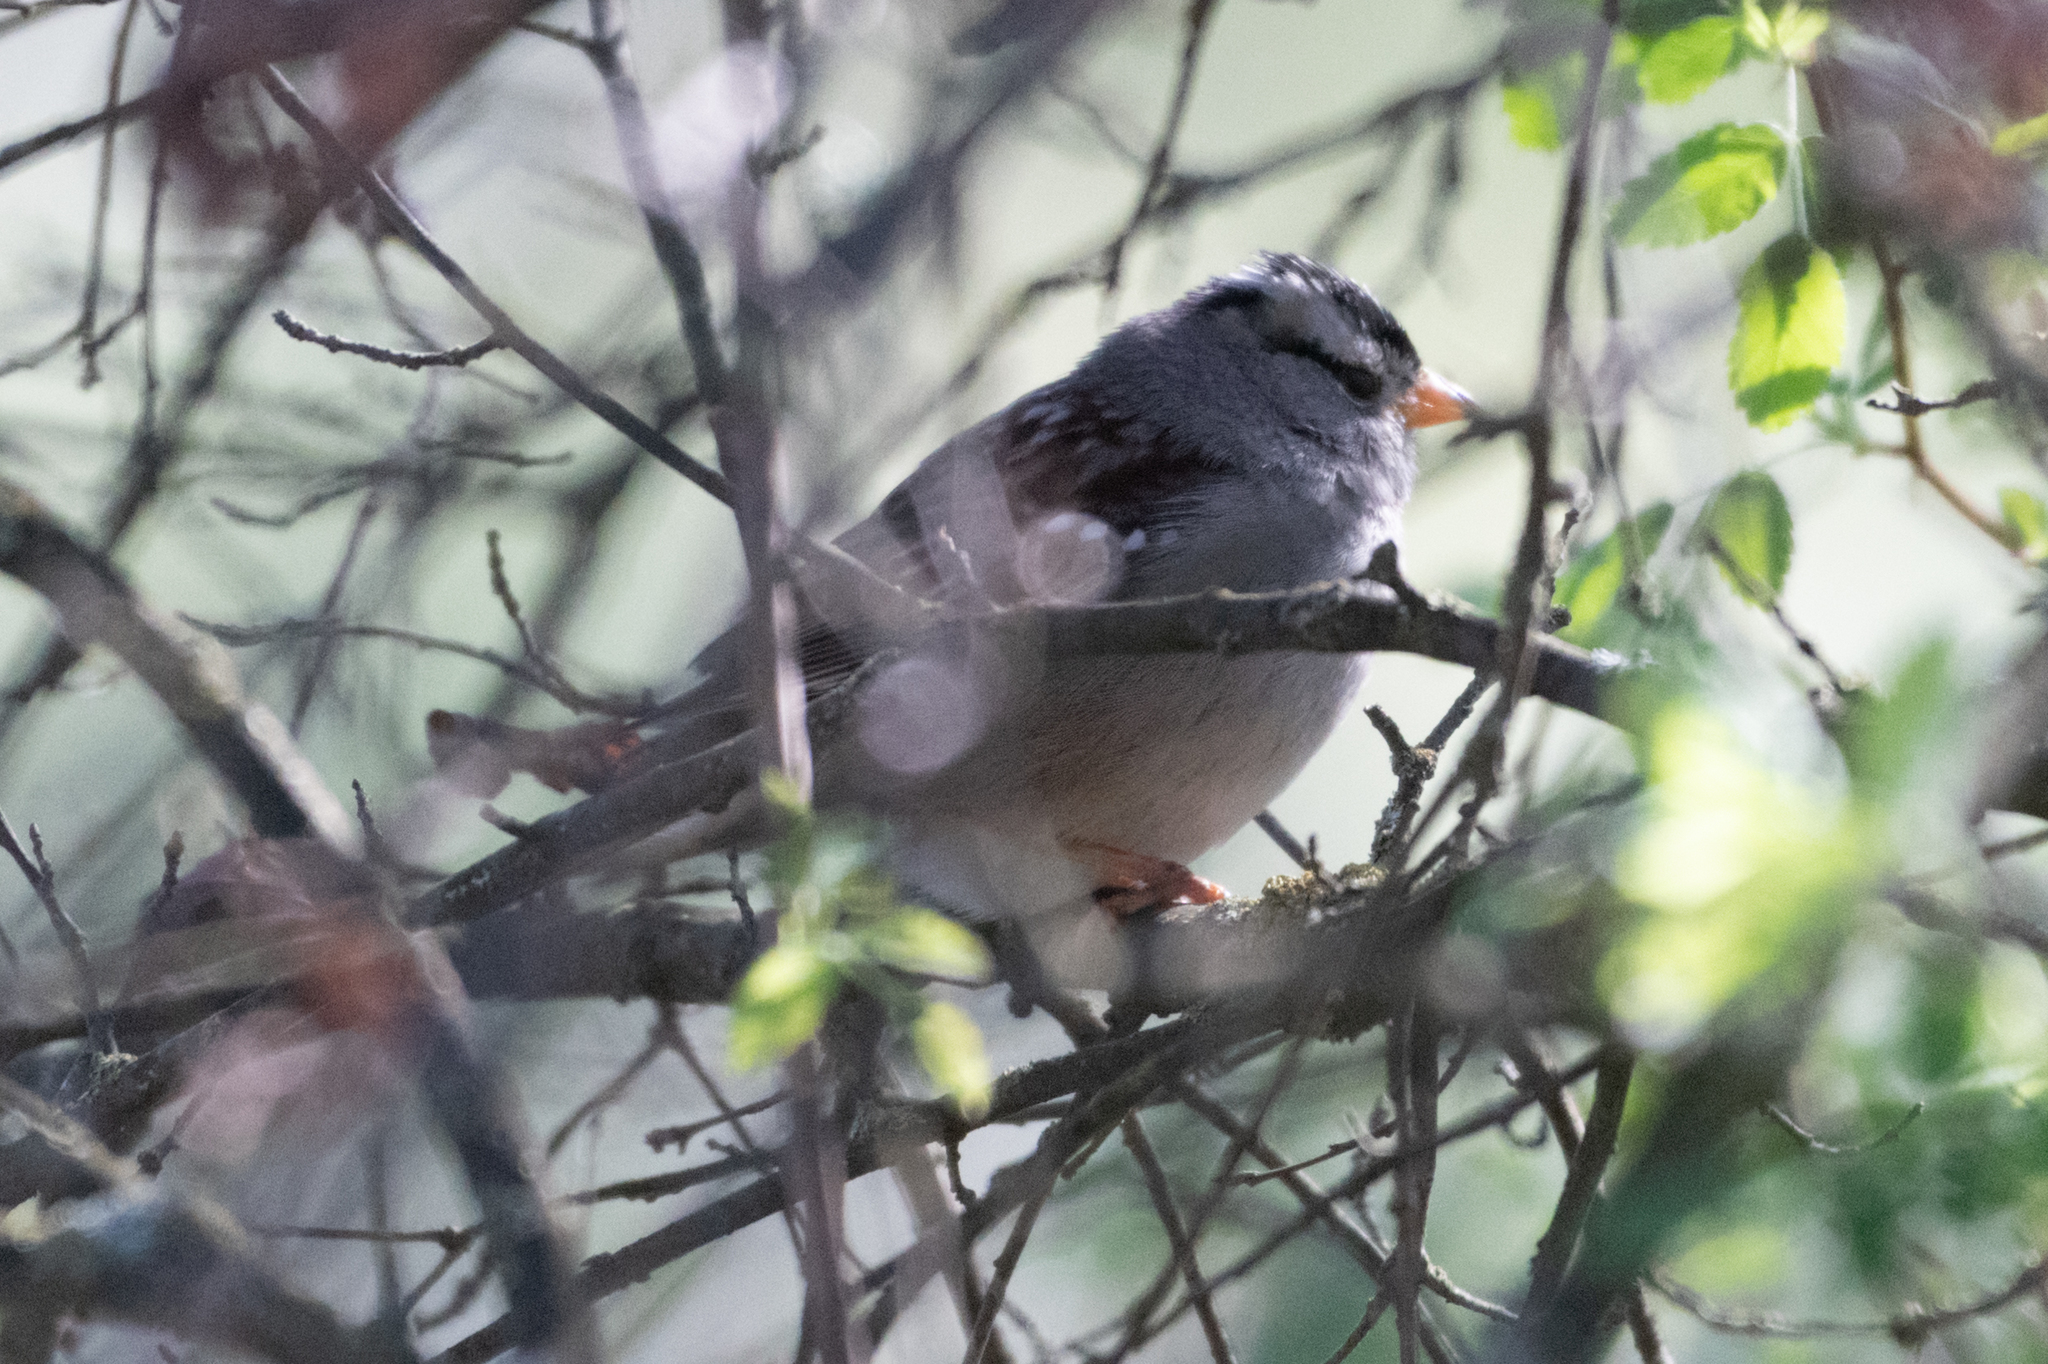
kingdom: Animalia
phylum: Chordata
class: Aves
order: Passeriformes
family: Passerellidae
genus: Zonotrichia
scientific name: Zonotrichia leucophrys
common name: White-crowned sparrow
